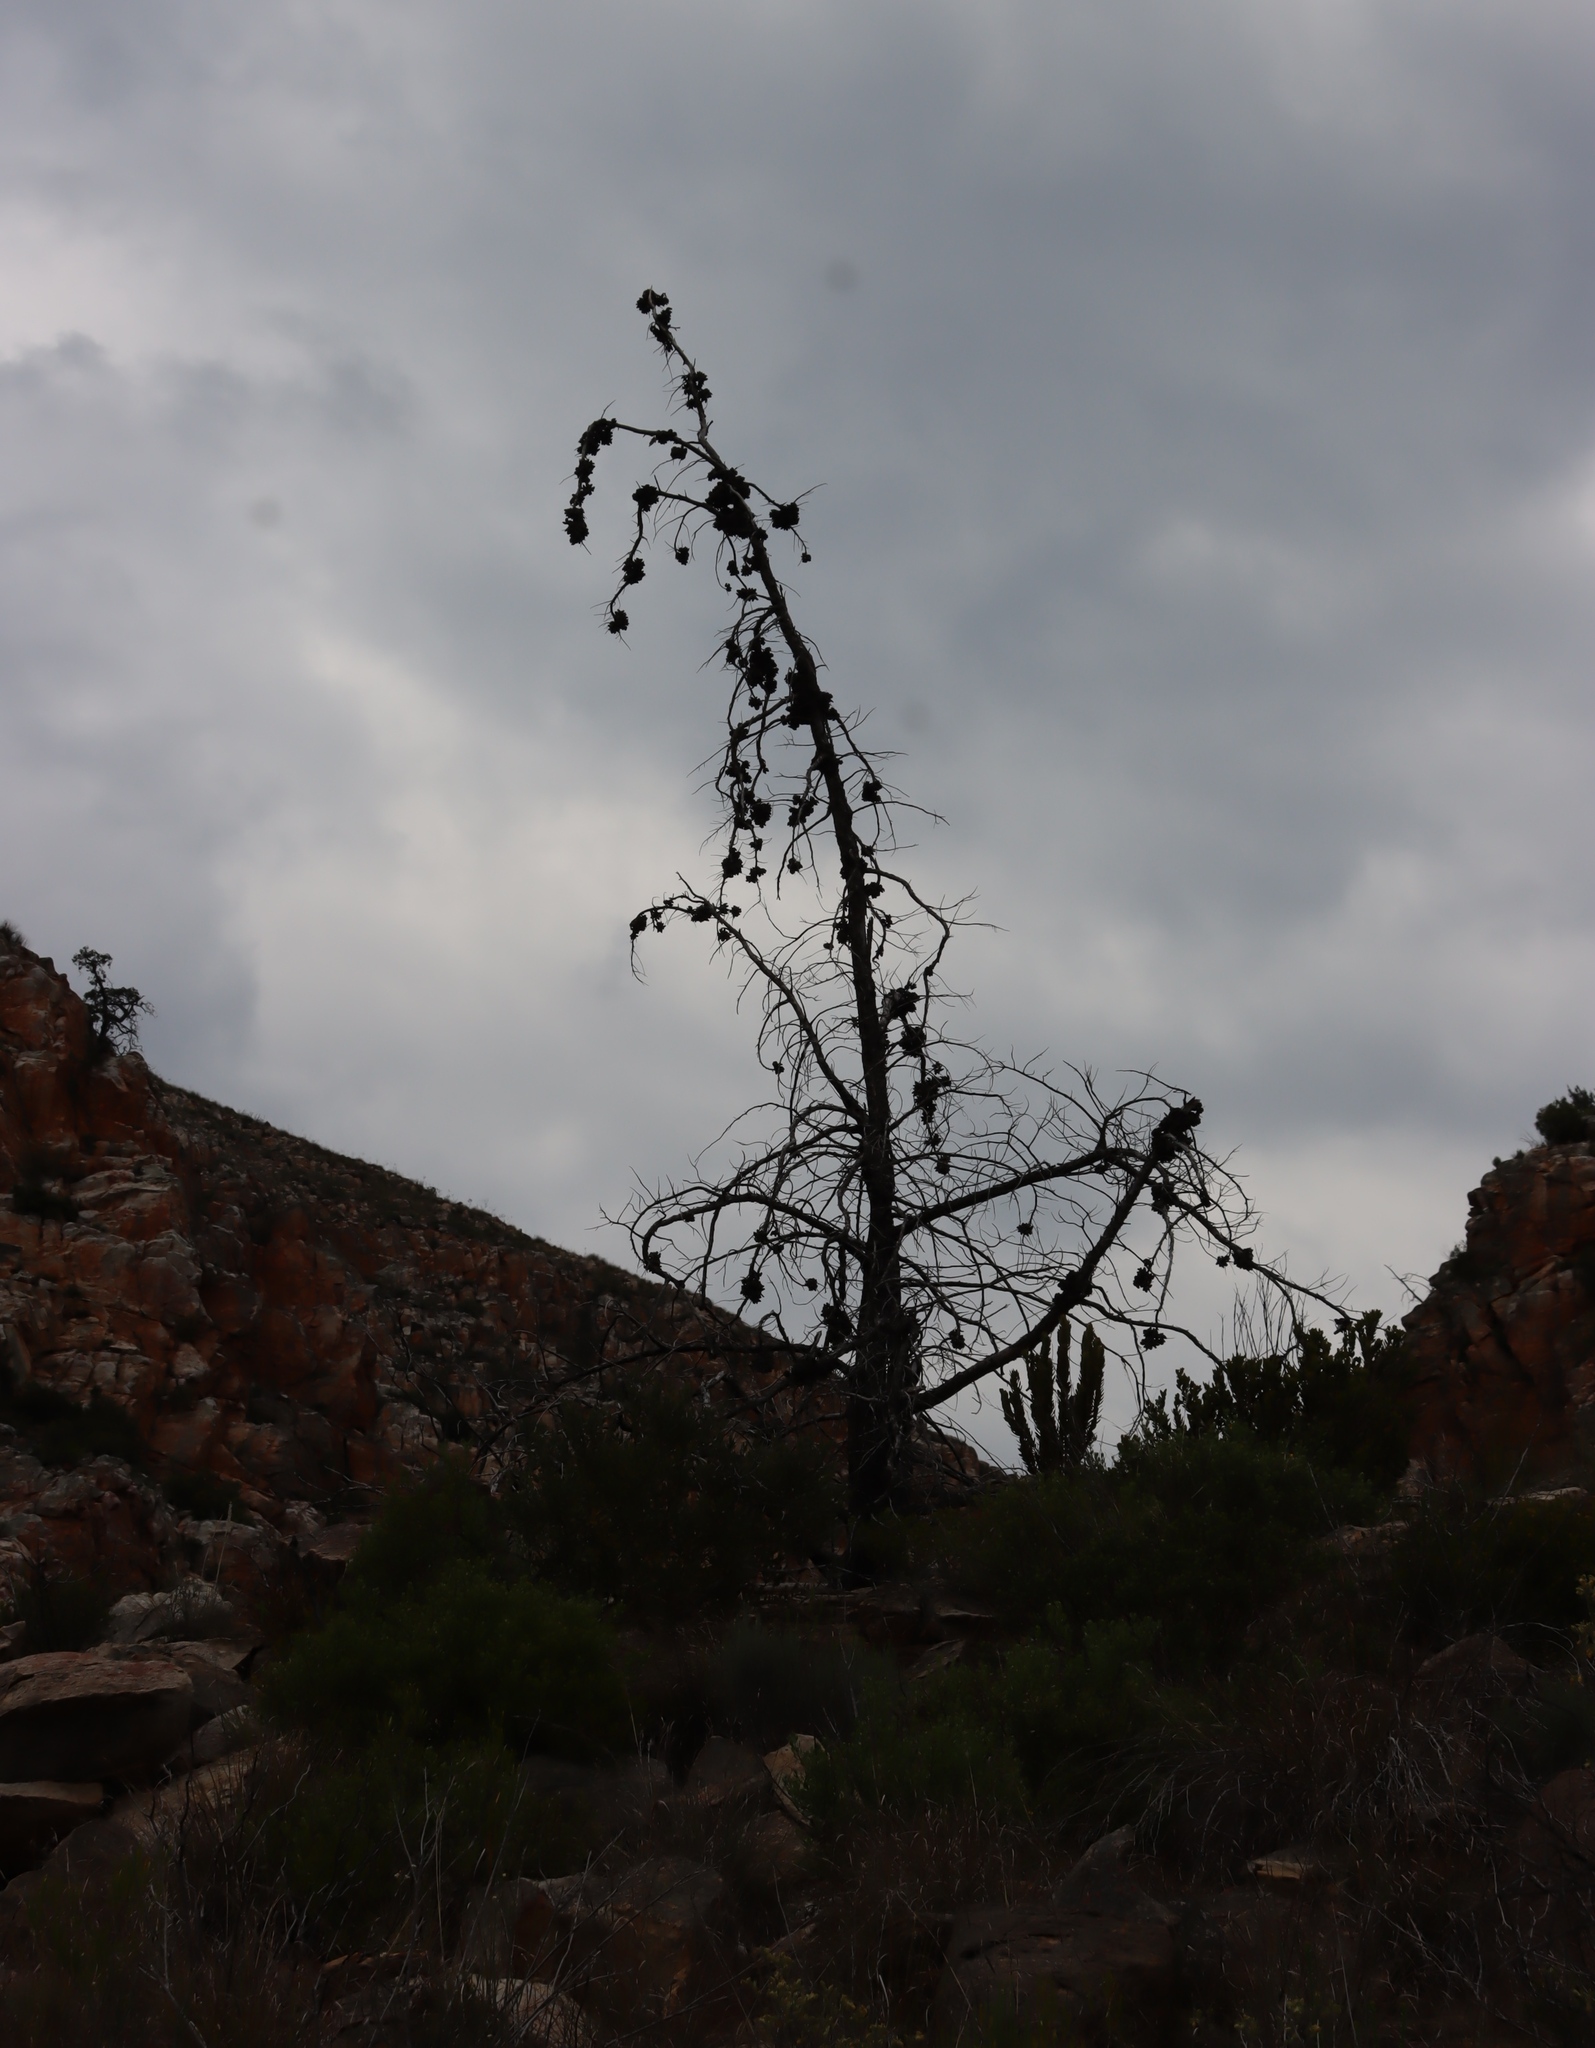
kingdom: Plantae
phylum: Tracheophyta
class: Pinopsida
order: Pinales
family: Cupressaceae
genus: Widdringtonia
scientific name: Widdringtonia schwarzii
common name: Baviaans cedar
